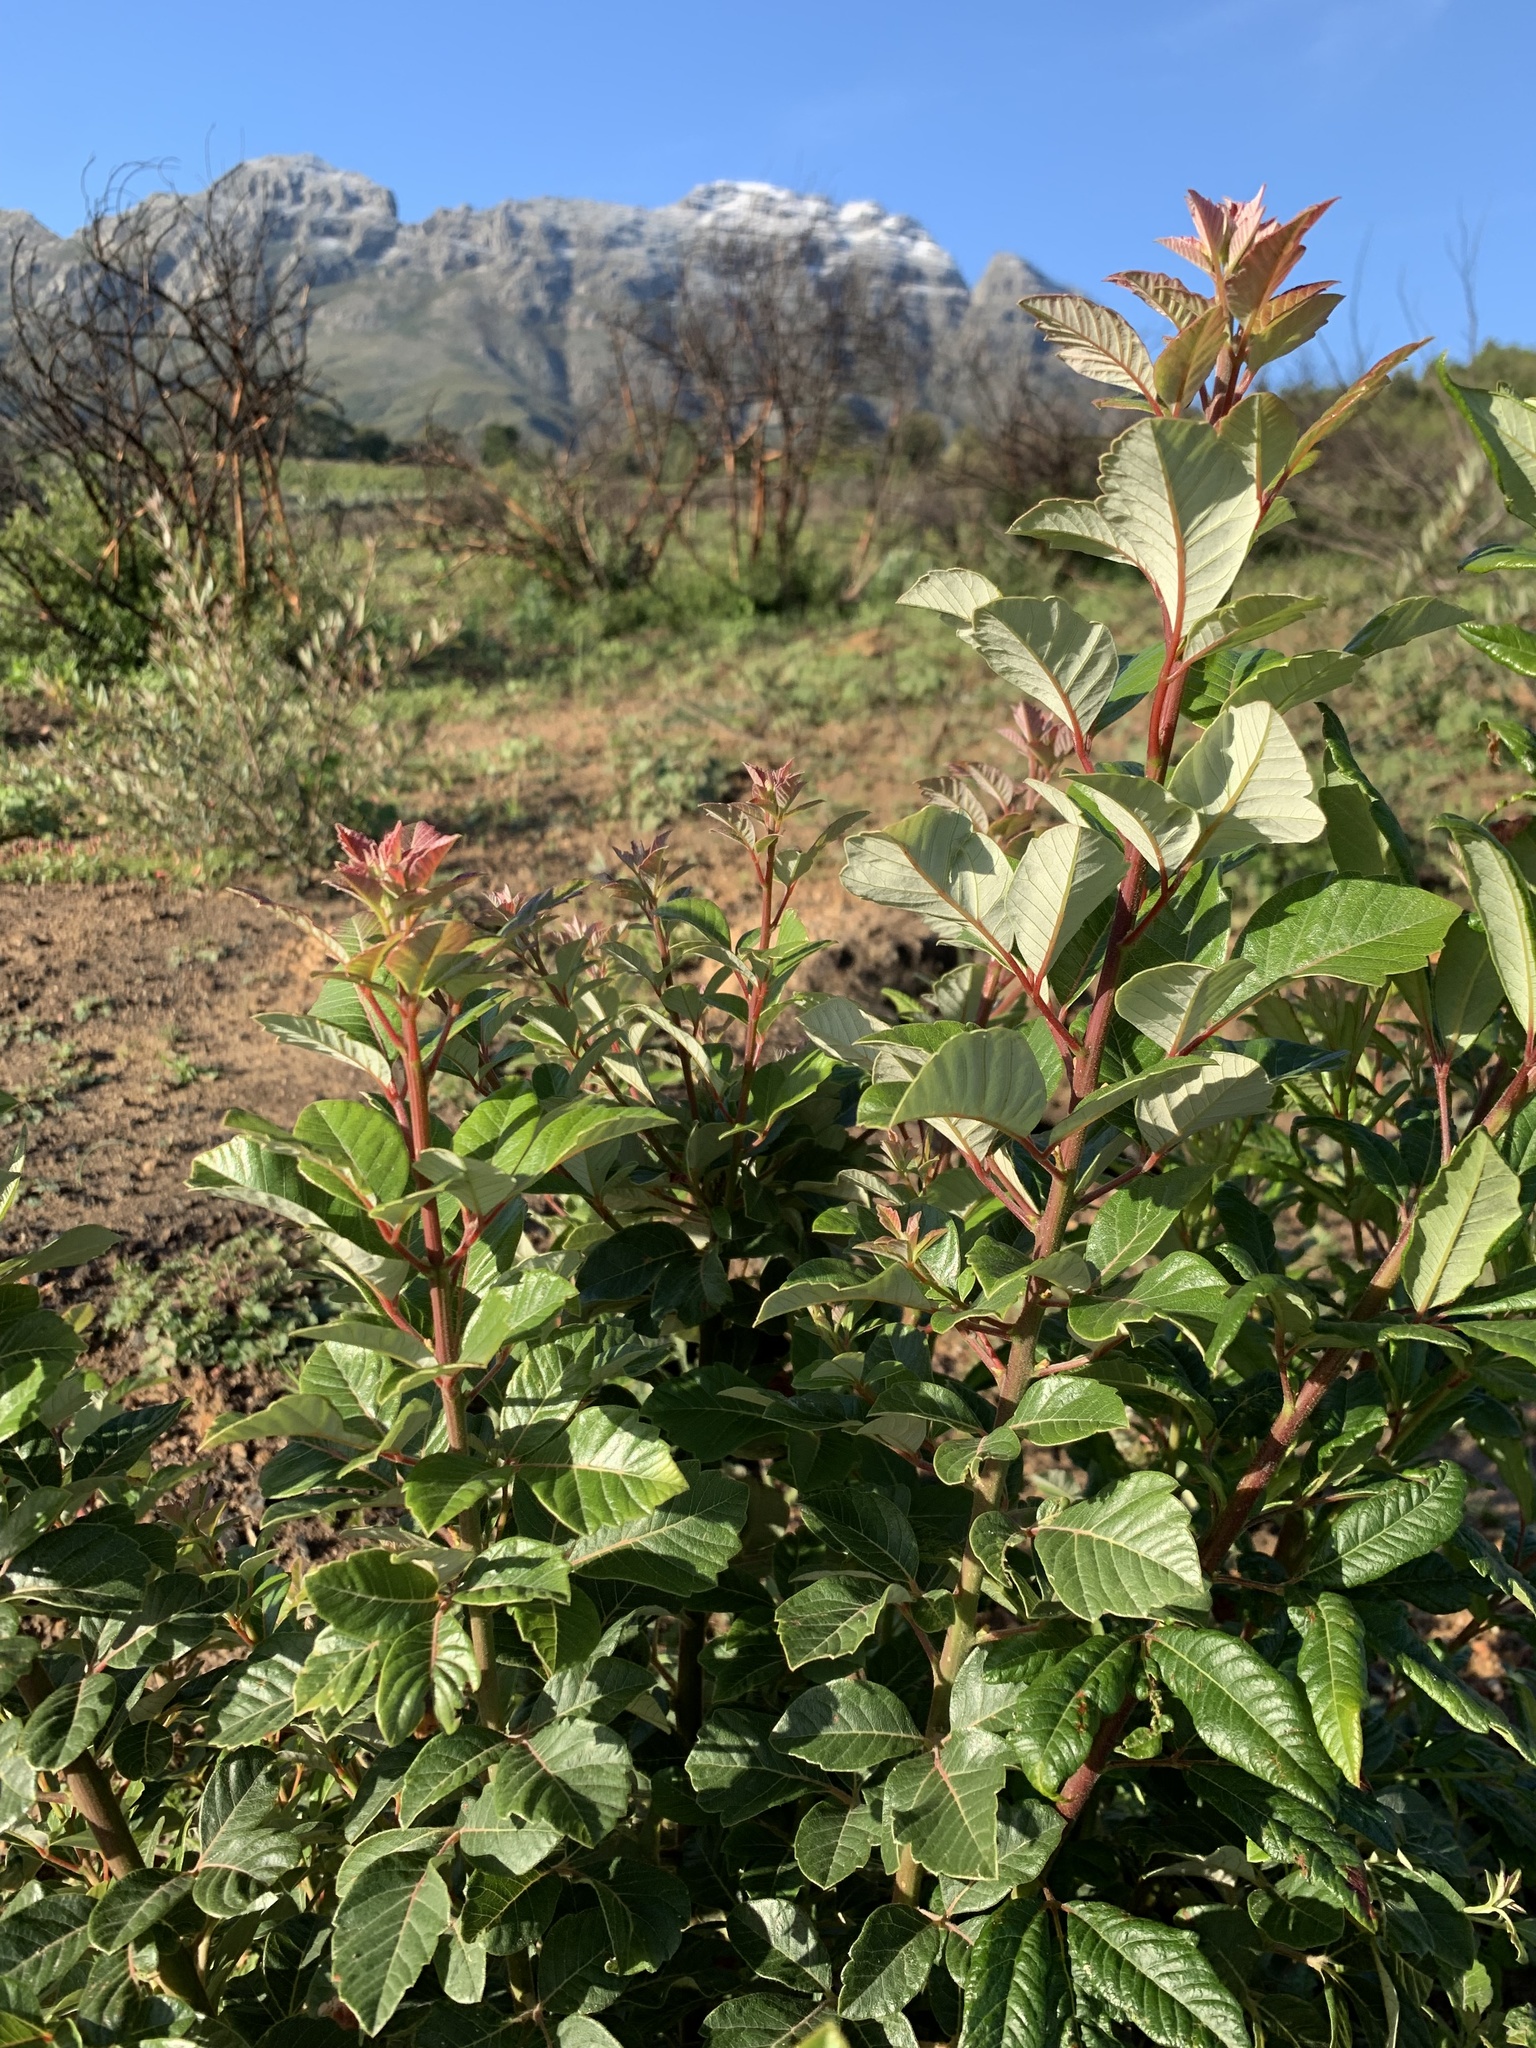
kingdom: Plantae
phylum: Tracheophyta
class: Magnoliopsida
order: Sapindales
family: Anacardiaceae
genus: Searsia
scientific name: Searsia tomentosa
